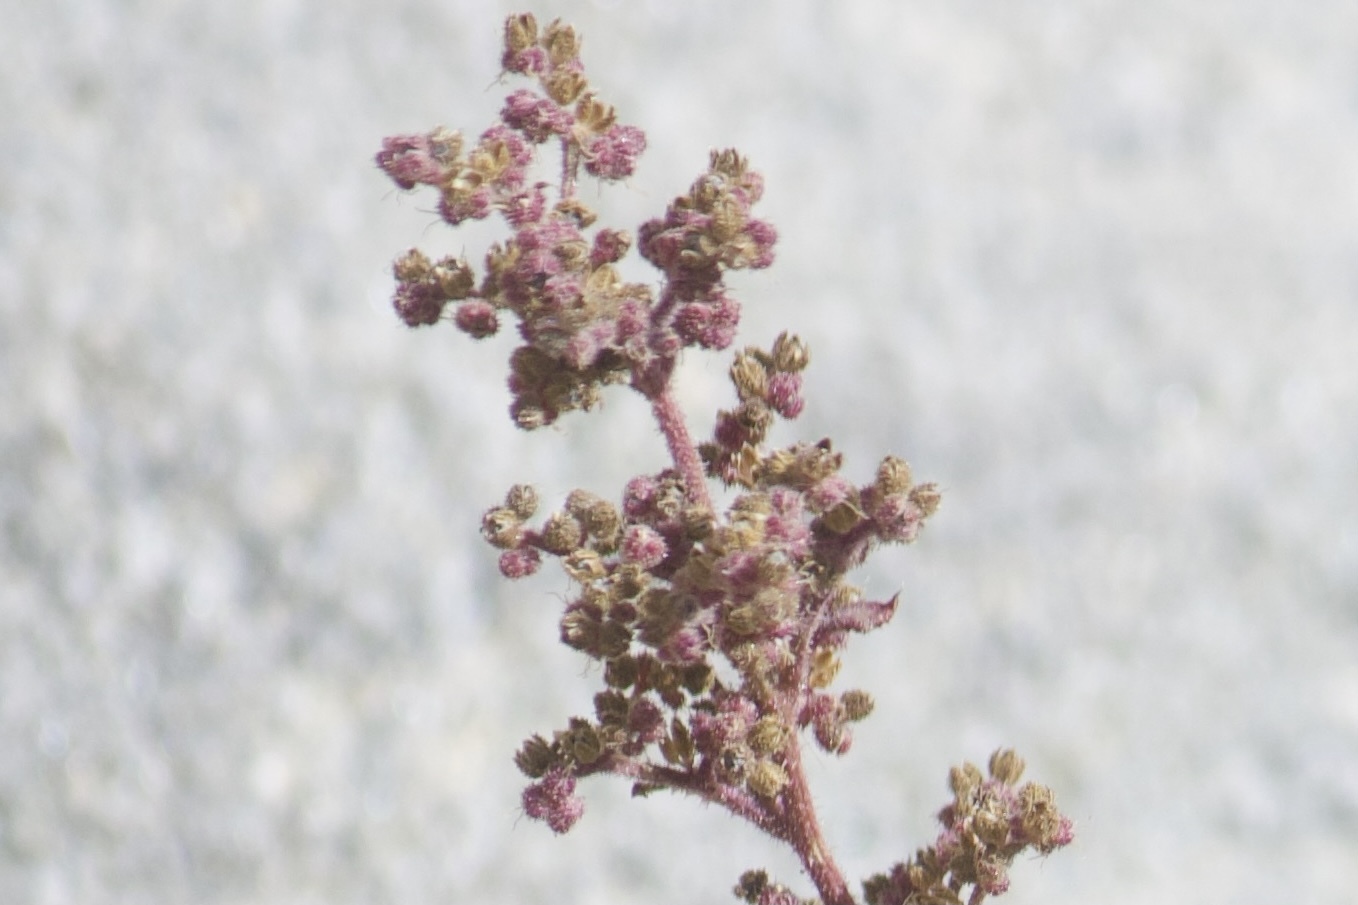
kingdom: Plantae
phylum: Tracheophyta
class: Magnoliopsida
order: Caryophyllales
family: Amaranthaceae
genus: Dysphania
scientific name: Dysphania botrys
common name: Feather-geranium
